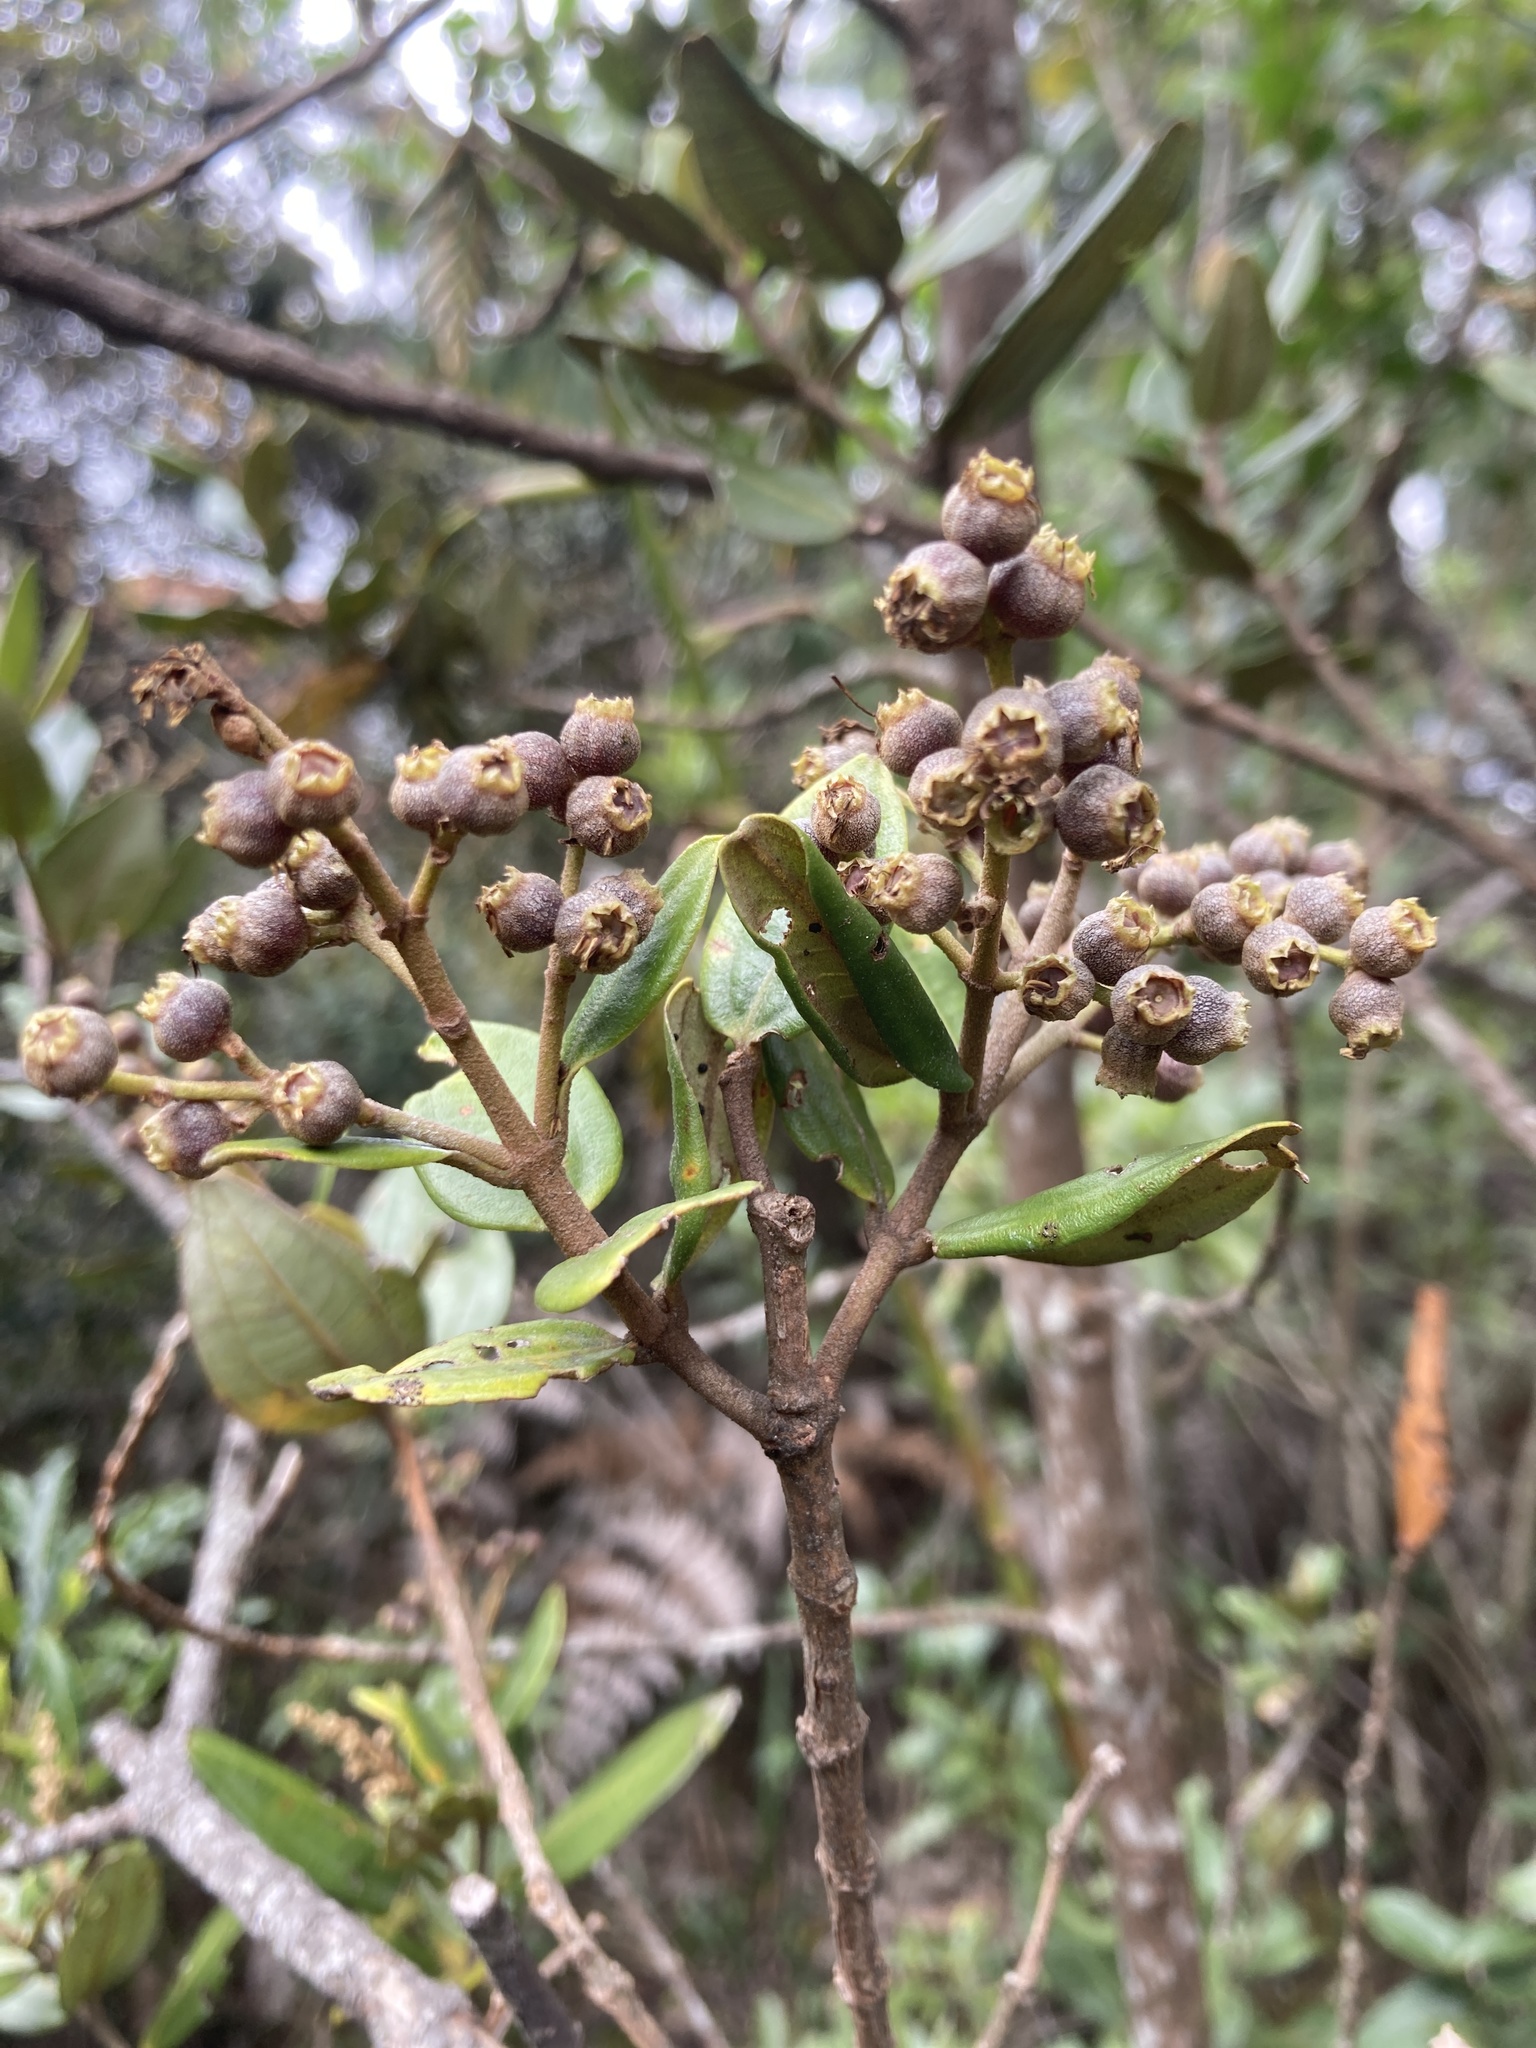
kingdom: Plantae
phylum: Tracheophyta
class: Magnoliopsida
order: Myrtales
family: Melastomataceae
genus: Miconia
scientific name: Miconia squamulosa
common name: Squamulose maya
